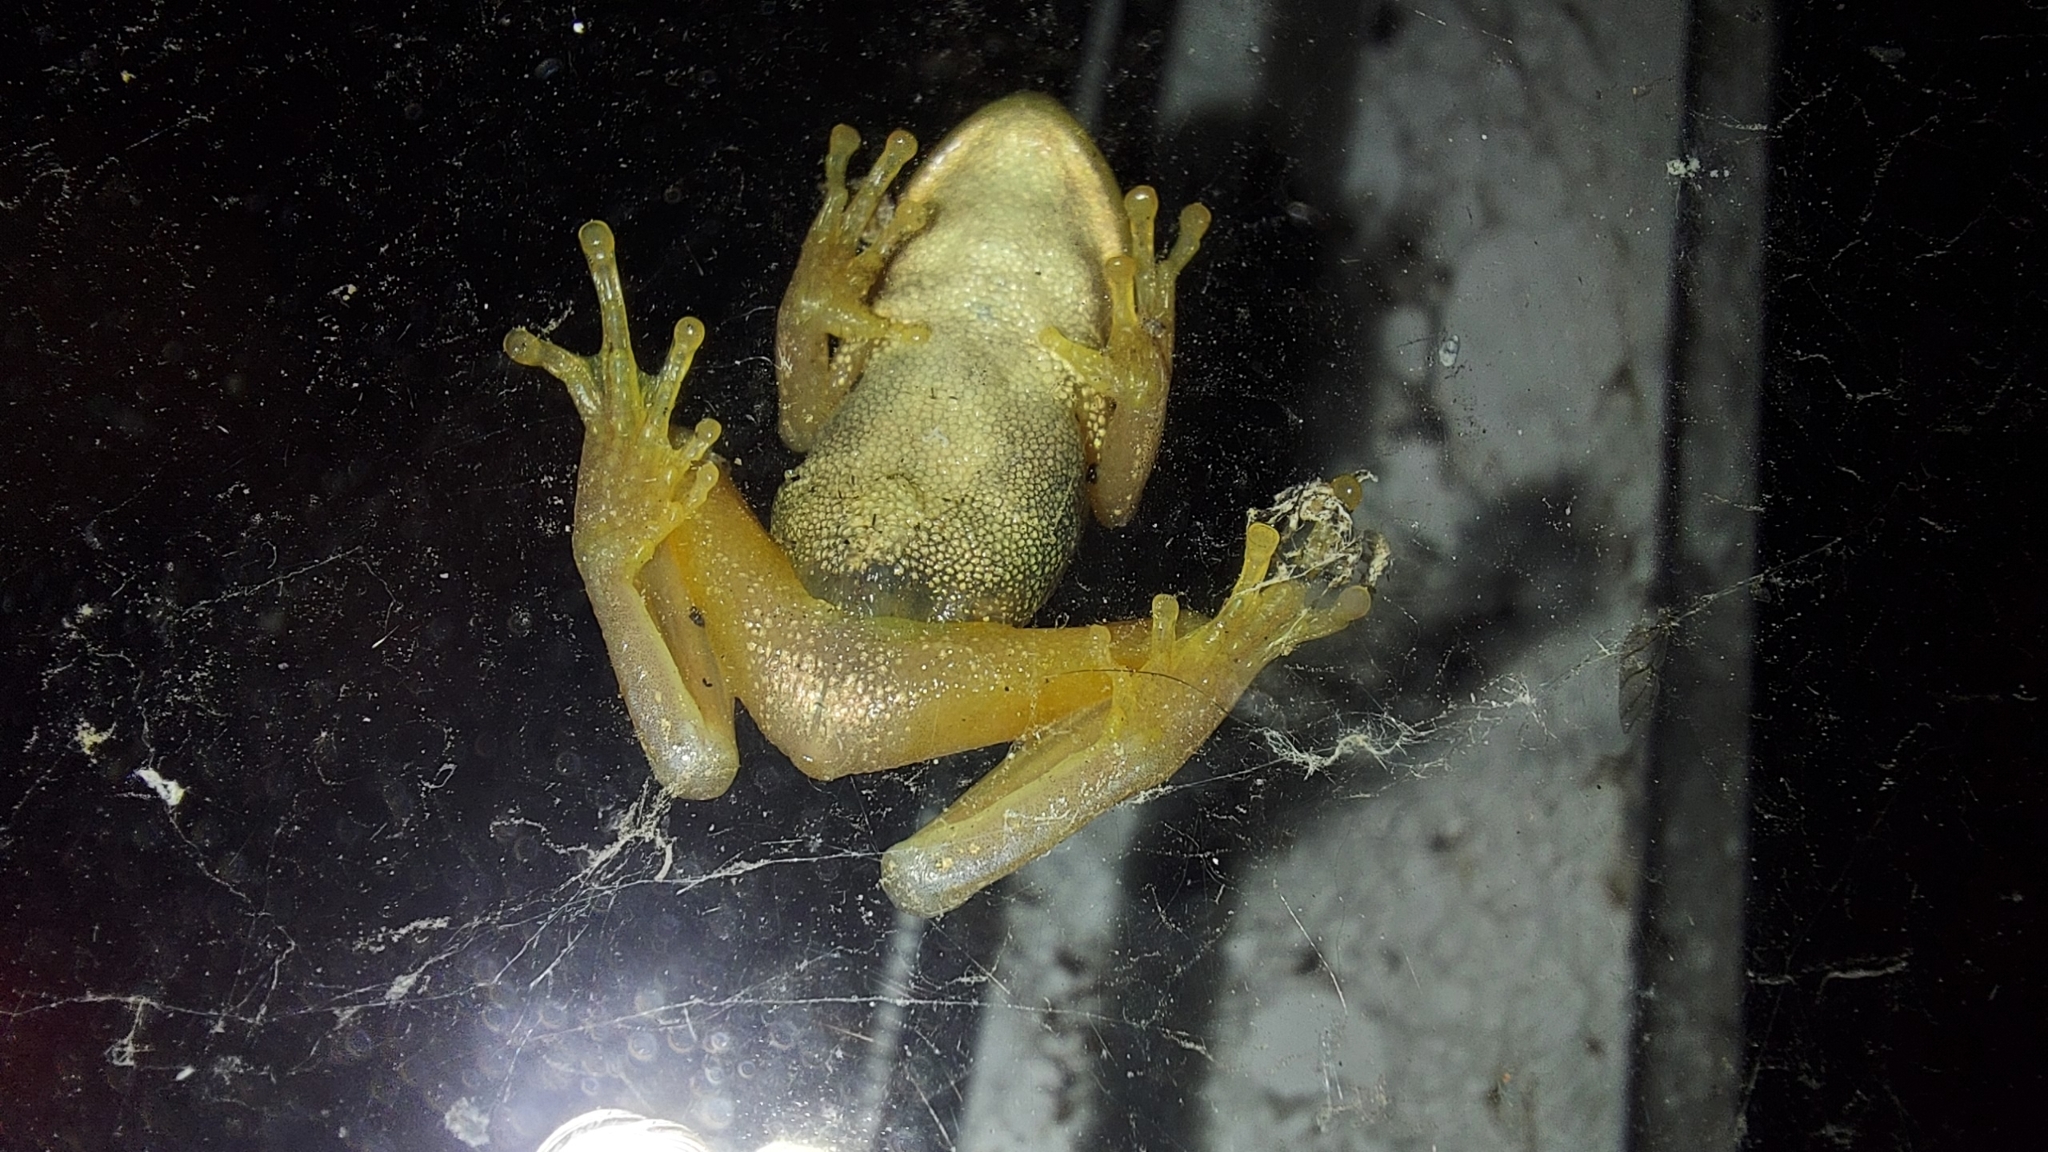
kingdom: Animalia
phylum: Chordata
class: Amphibia
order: Anura
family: Pelodryadidae
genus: Litoria
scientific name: Litoria ewingii
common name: Southern brown tree frog
